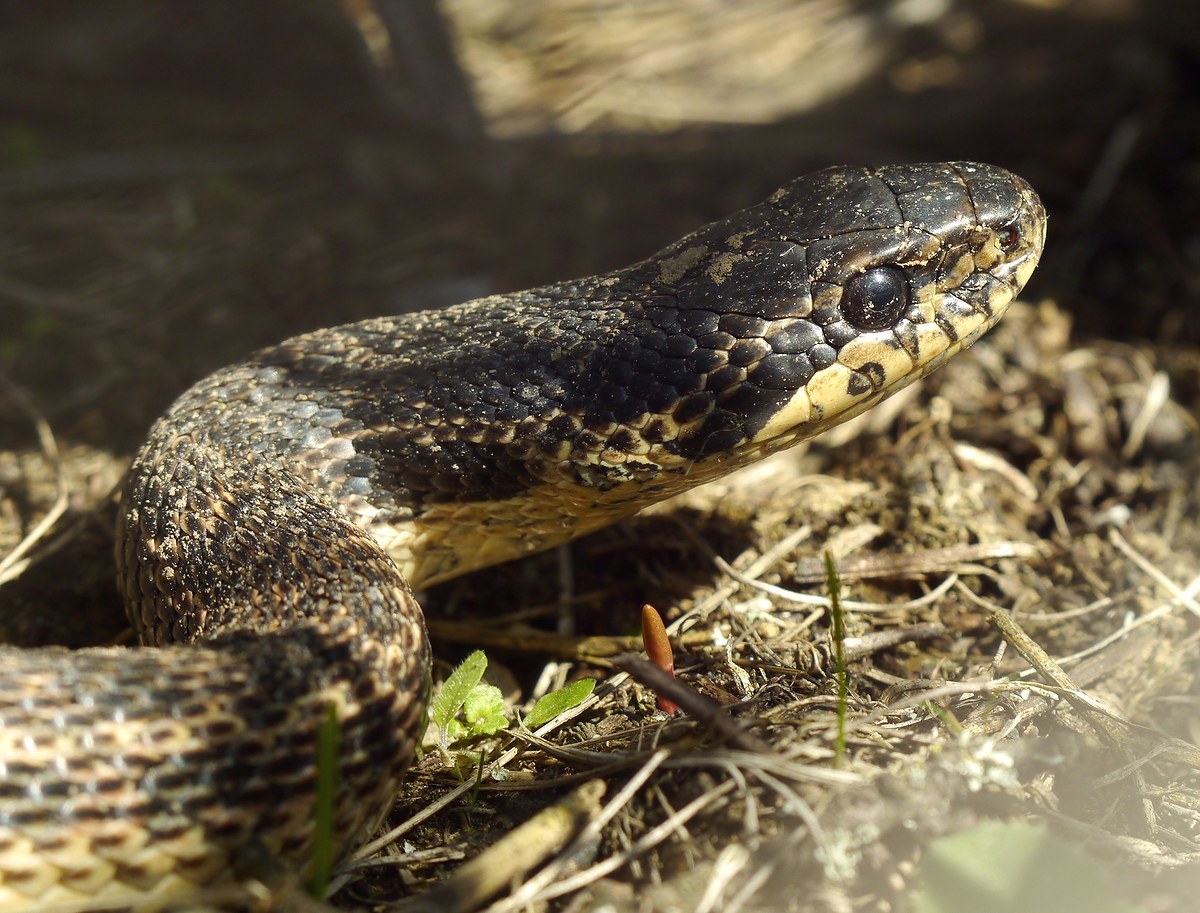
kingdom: Animalia
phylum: Chordata
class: Squamata
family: Colubridae
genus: Elaphe
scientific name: Elaphe sauromates
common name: Eastern four-lined ratsnake
